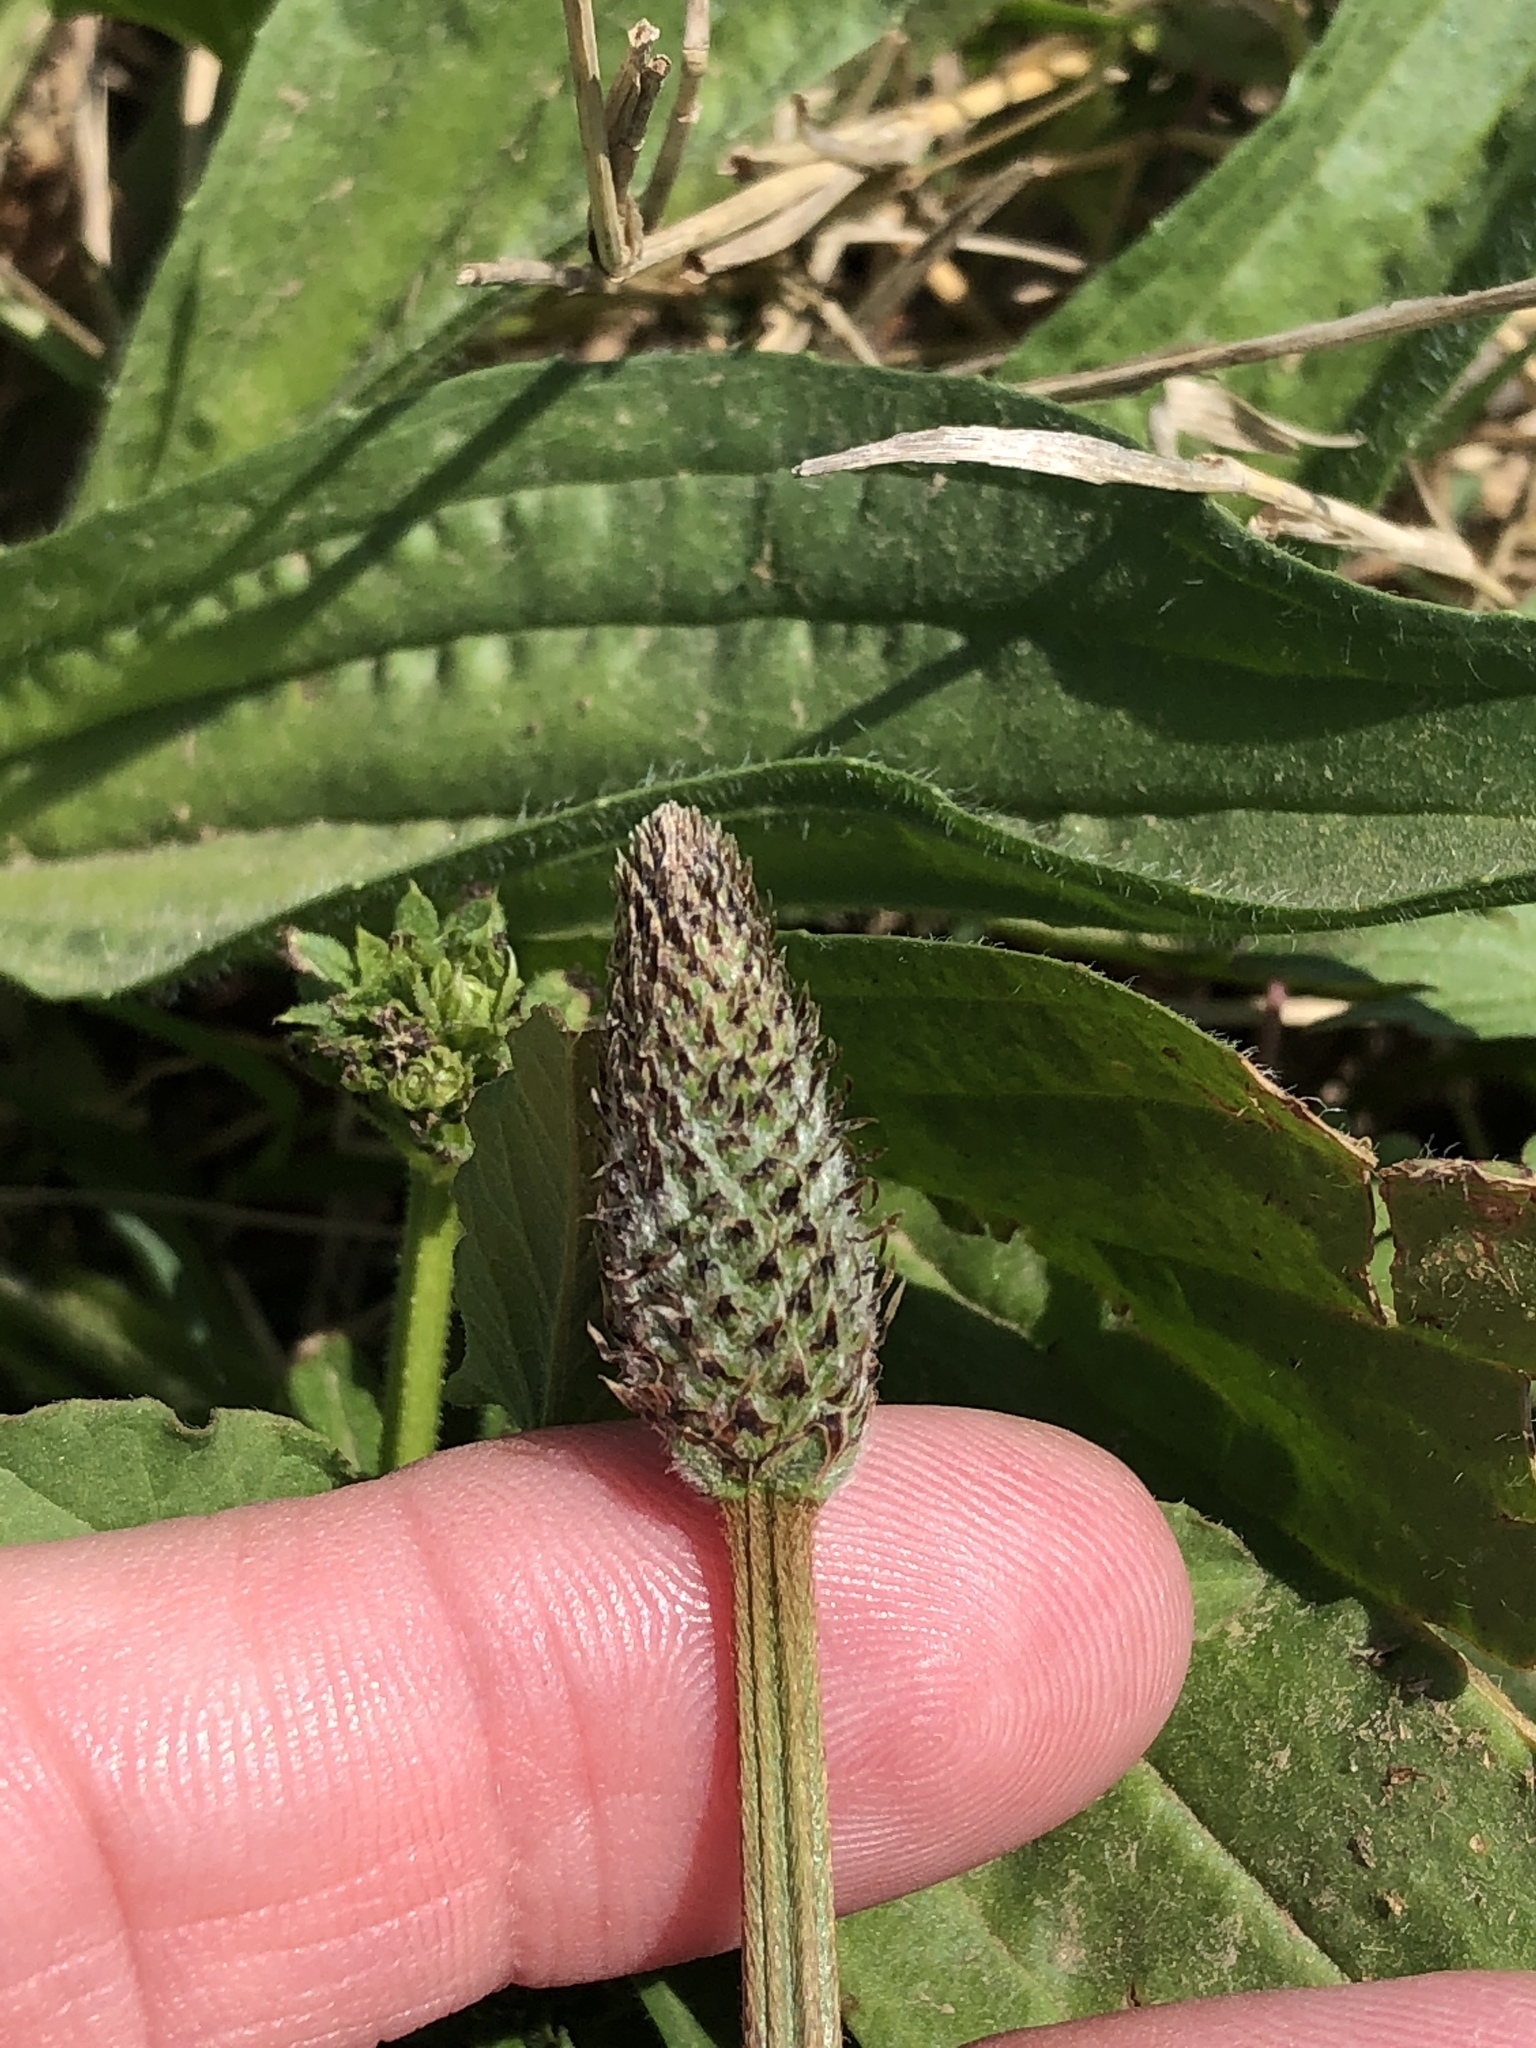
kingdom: Plantae
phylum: Tracheophyta
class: Magnoliopsida
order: Lamiales
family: Plantaginaceae
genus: Plantago
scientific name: Plantago lanceolata
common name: Ribwort plantain
